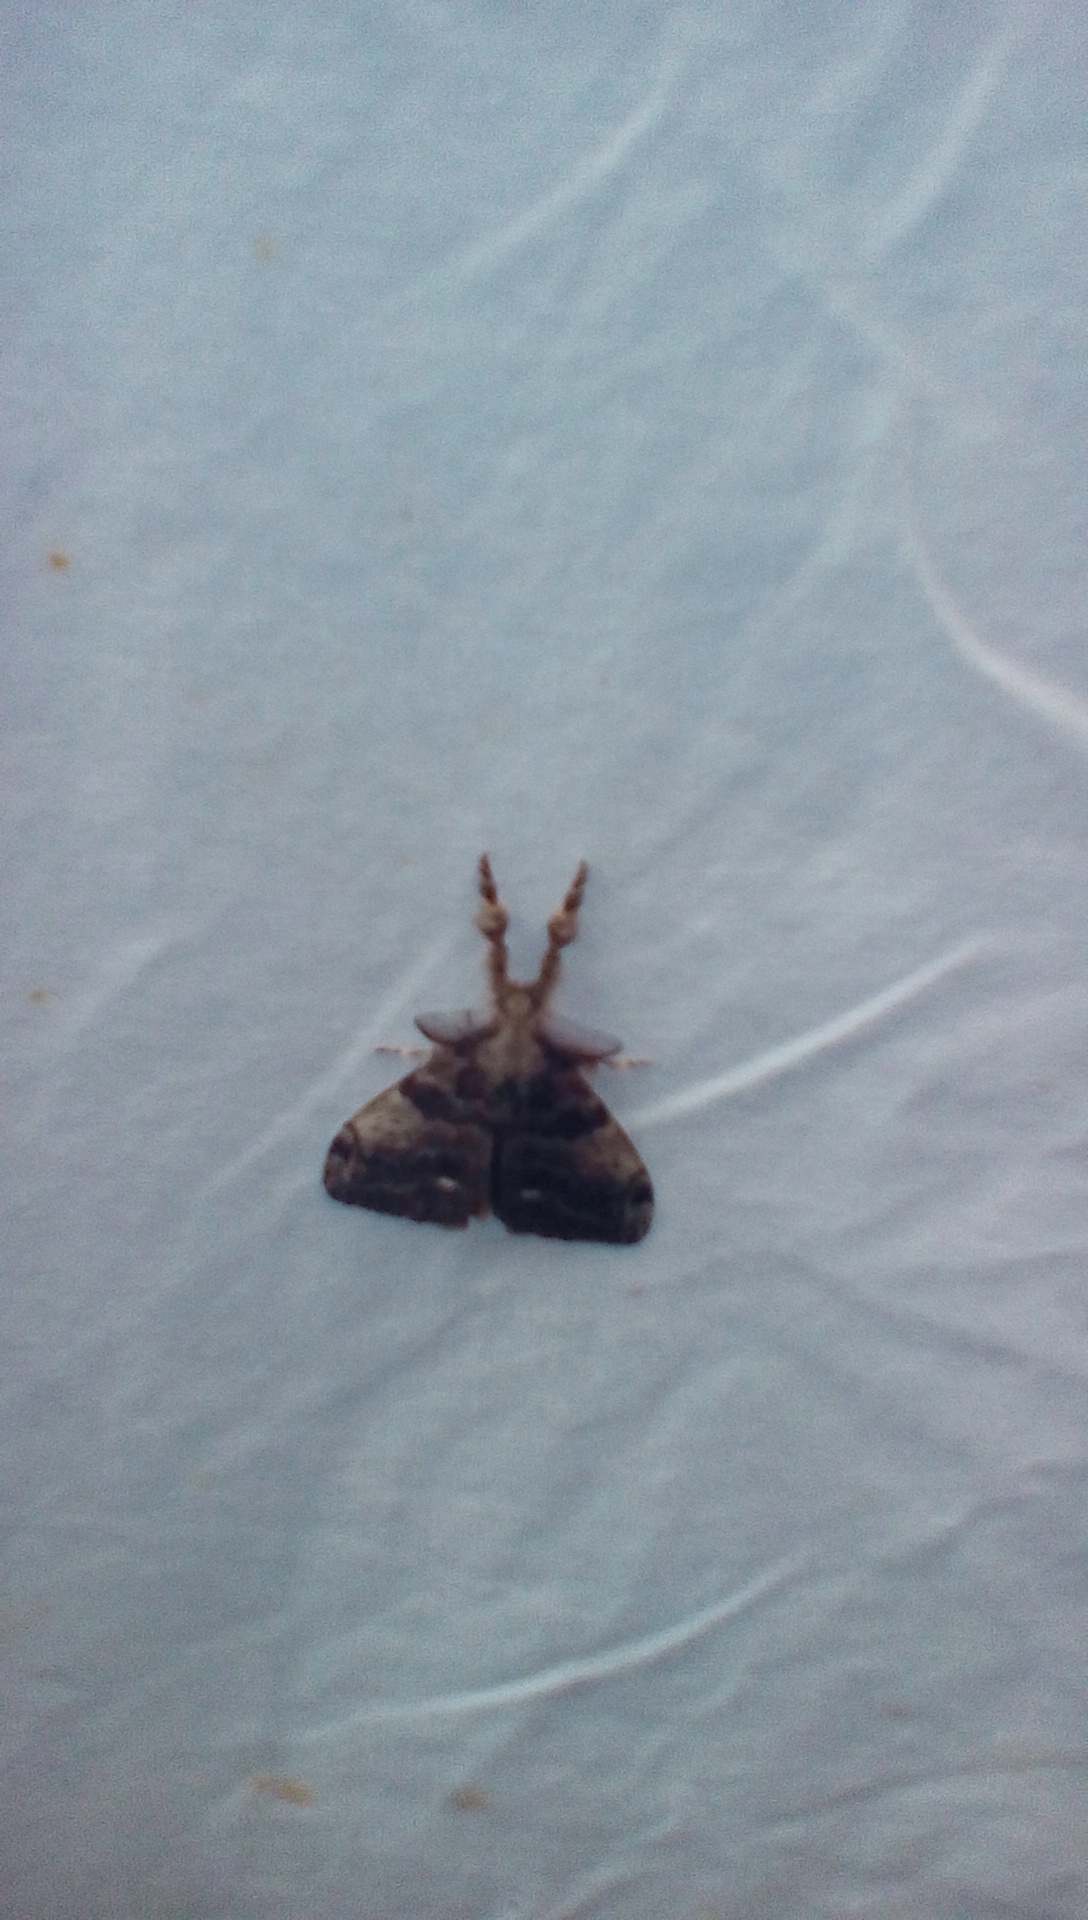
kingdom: Animalia
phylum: Arthropoda
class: Insecta
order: Lepidoptera
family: Erebidae
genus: Orgyia
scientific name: Orgyia
